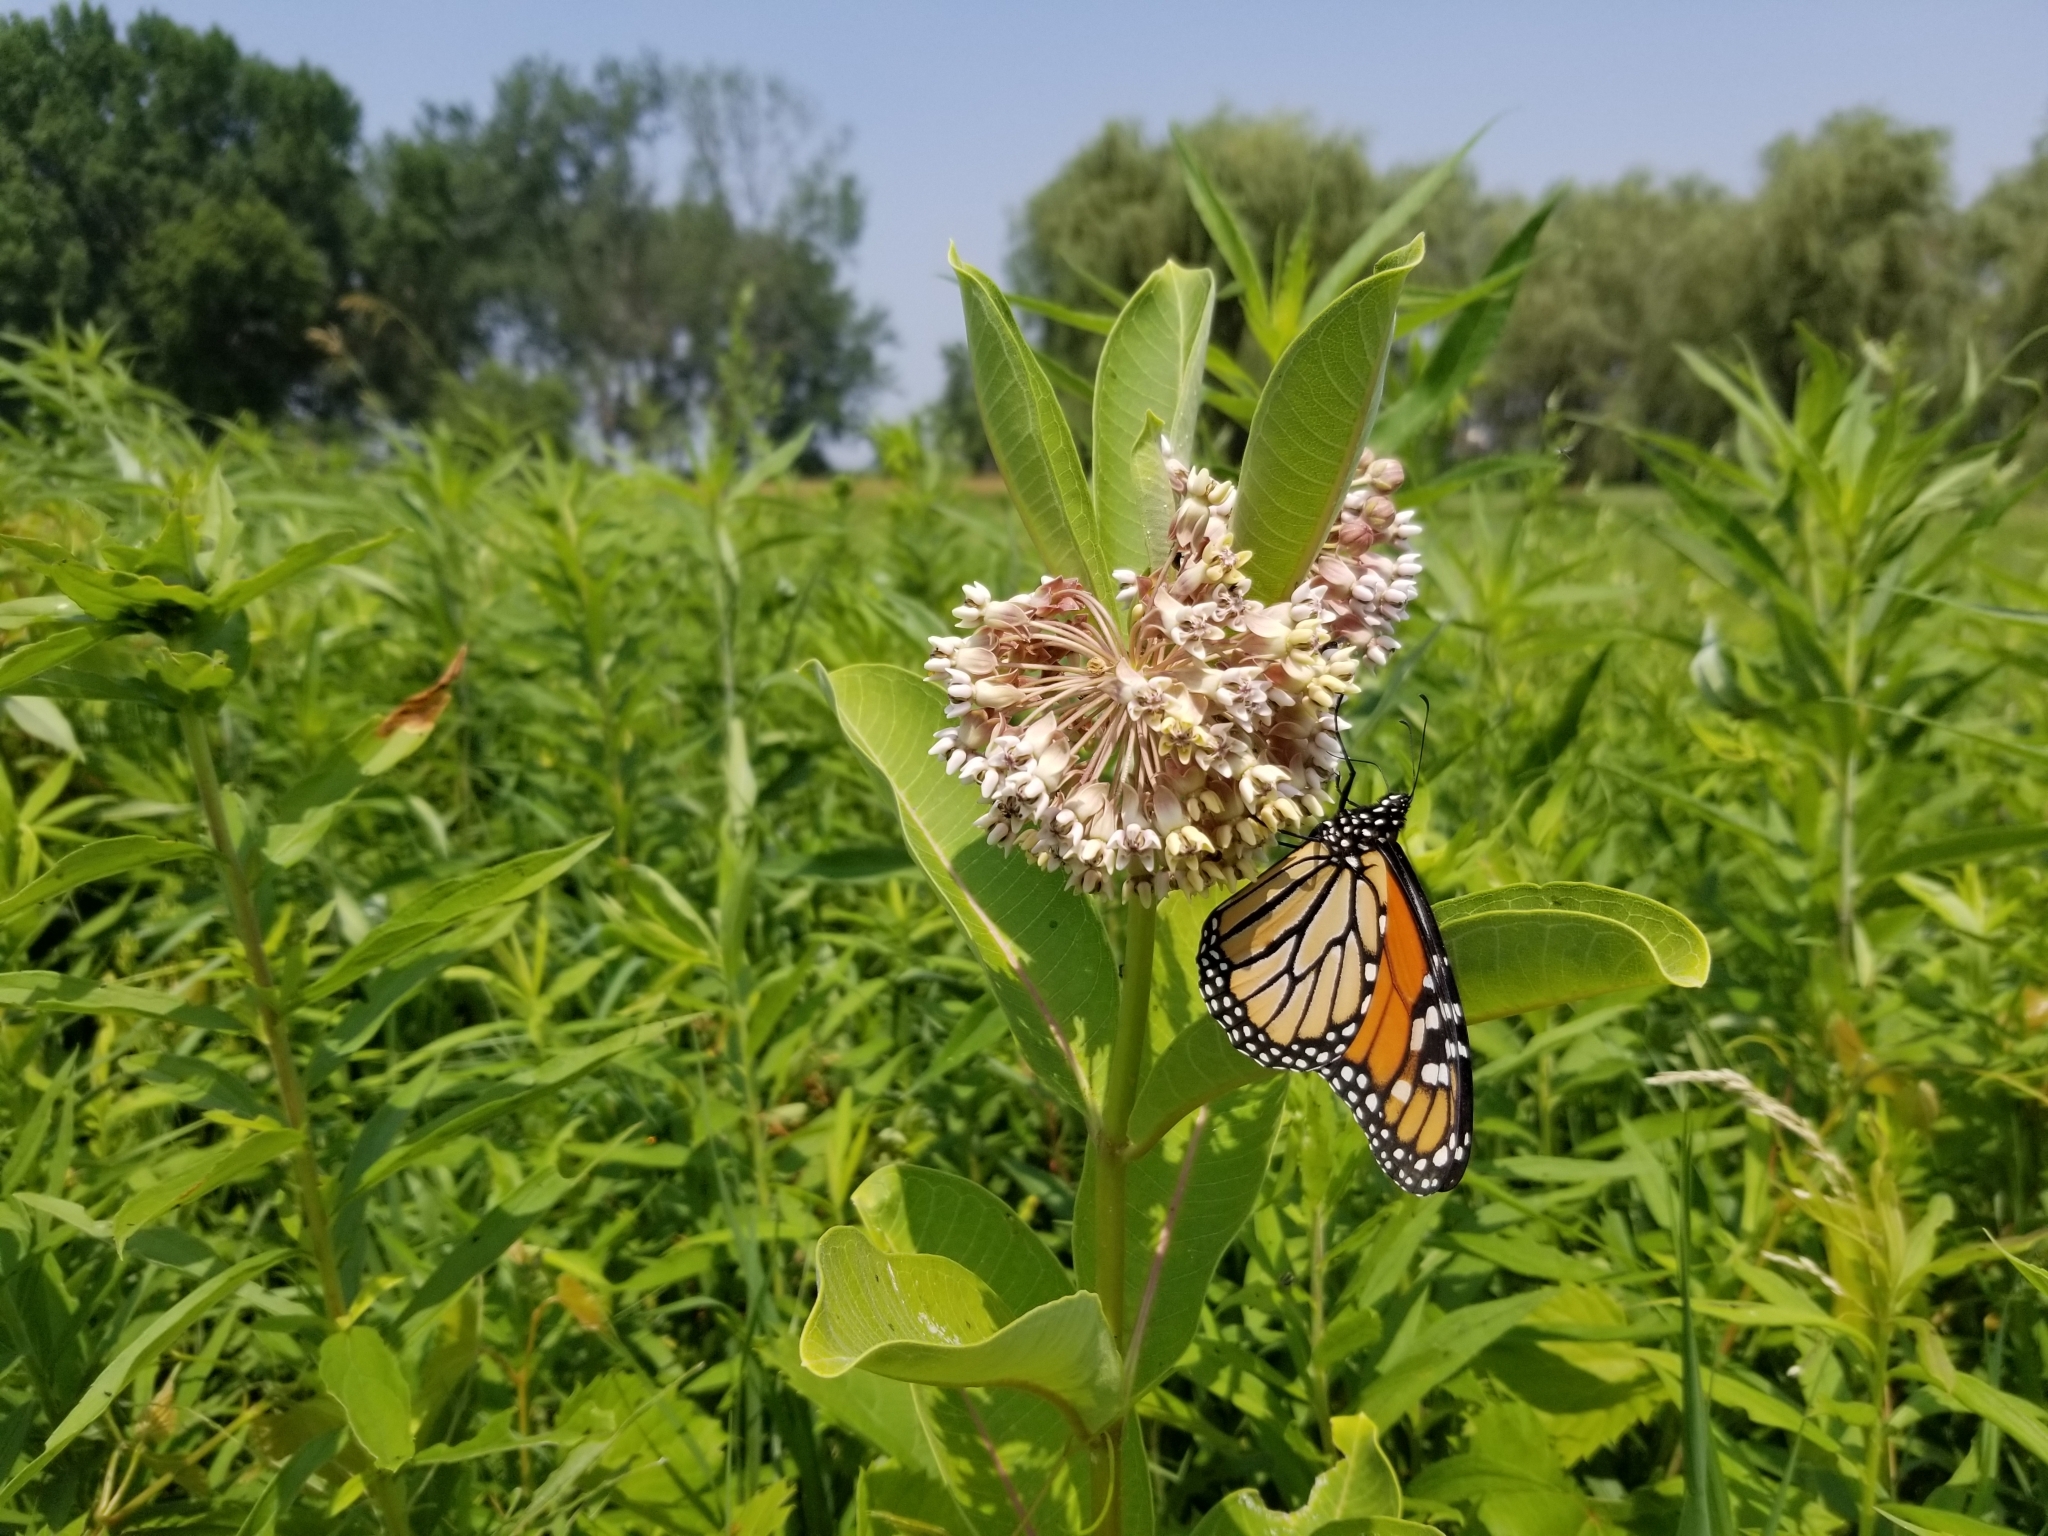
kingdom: Animalia
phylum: Arthropoda
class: Insecta
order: Lepidoptera
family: Nymphalidae
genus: Danaus
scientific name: Danaus plexippus
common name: Monarch
